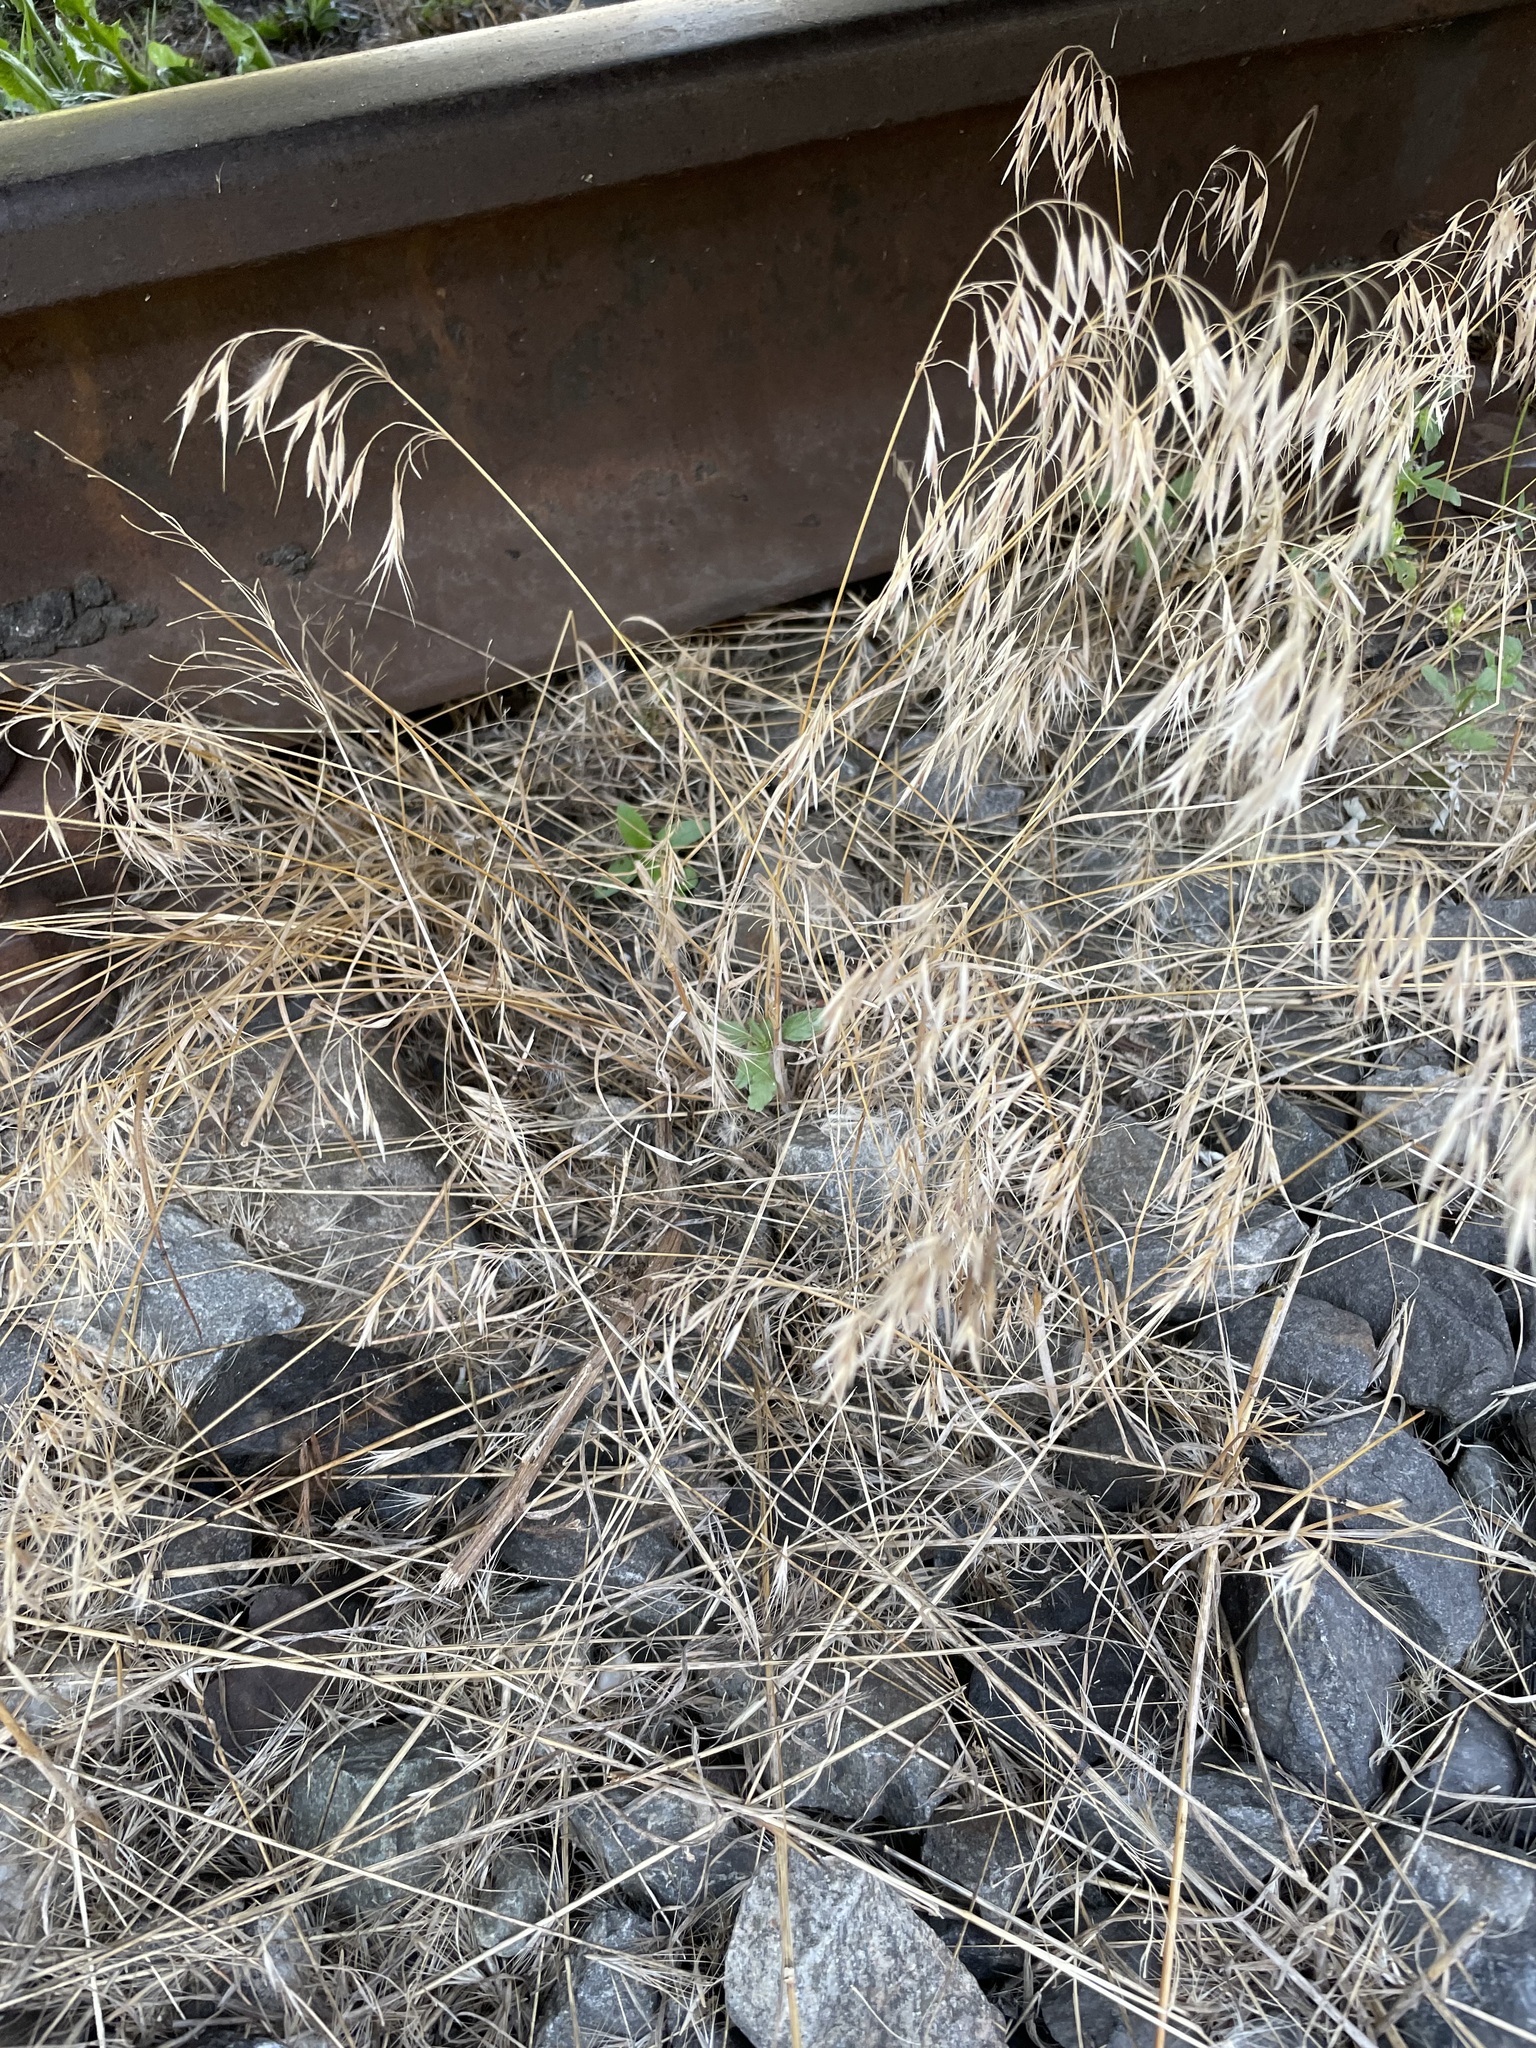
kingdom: Plantae
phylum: Tracheophyta
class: Liliopsida
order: Poales
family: Poaceae
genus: Bromus
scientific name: Bromus tectorum
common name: Cheatgrass
